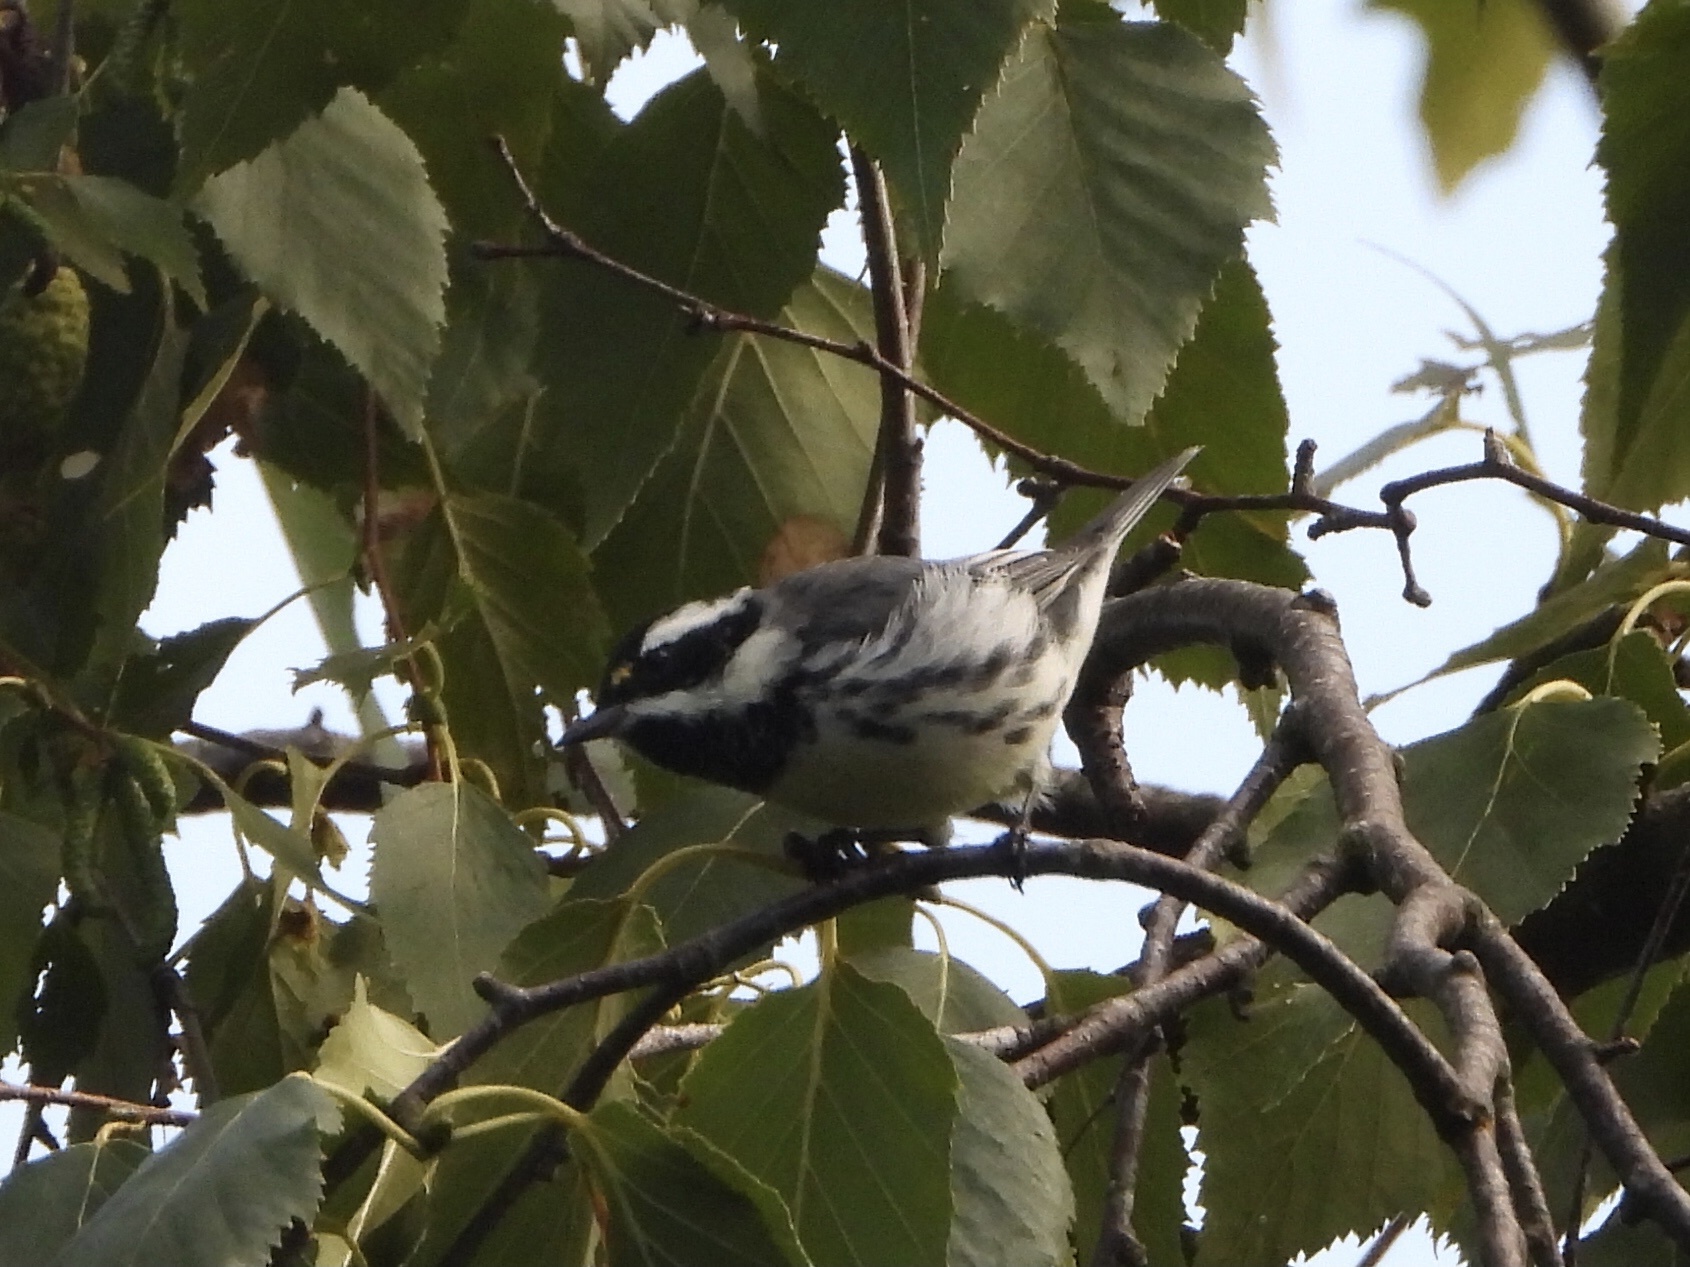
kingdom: Animalia
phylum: Chordata
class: Aves
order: Passeriformes
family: Parulidae
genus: Setophaga
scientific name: Setophaga nigrescens
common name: Black-throated gray warbler
